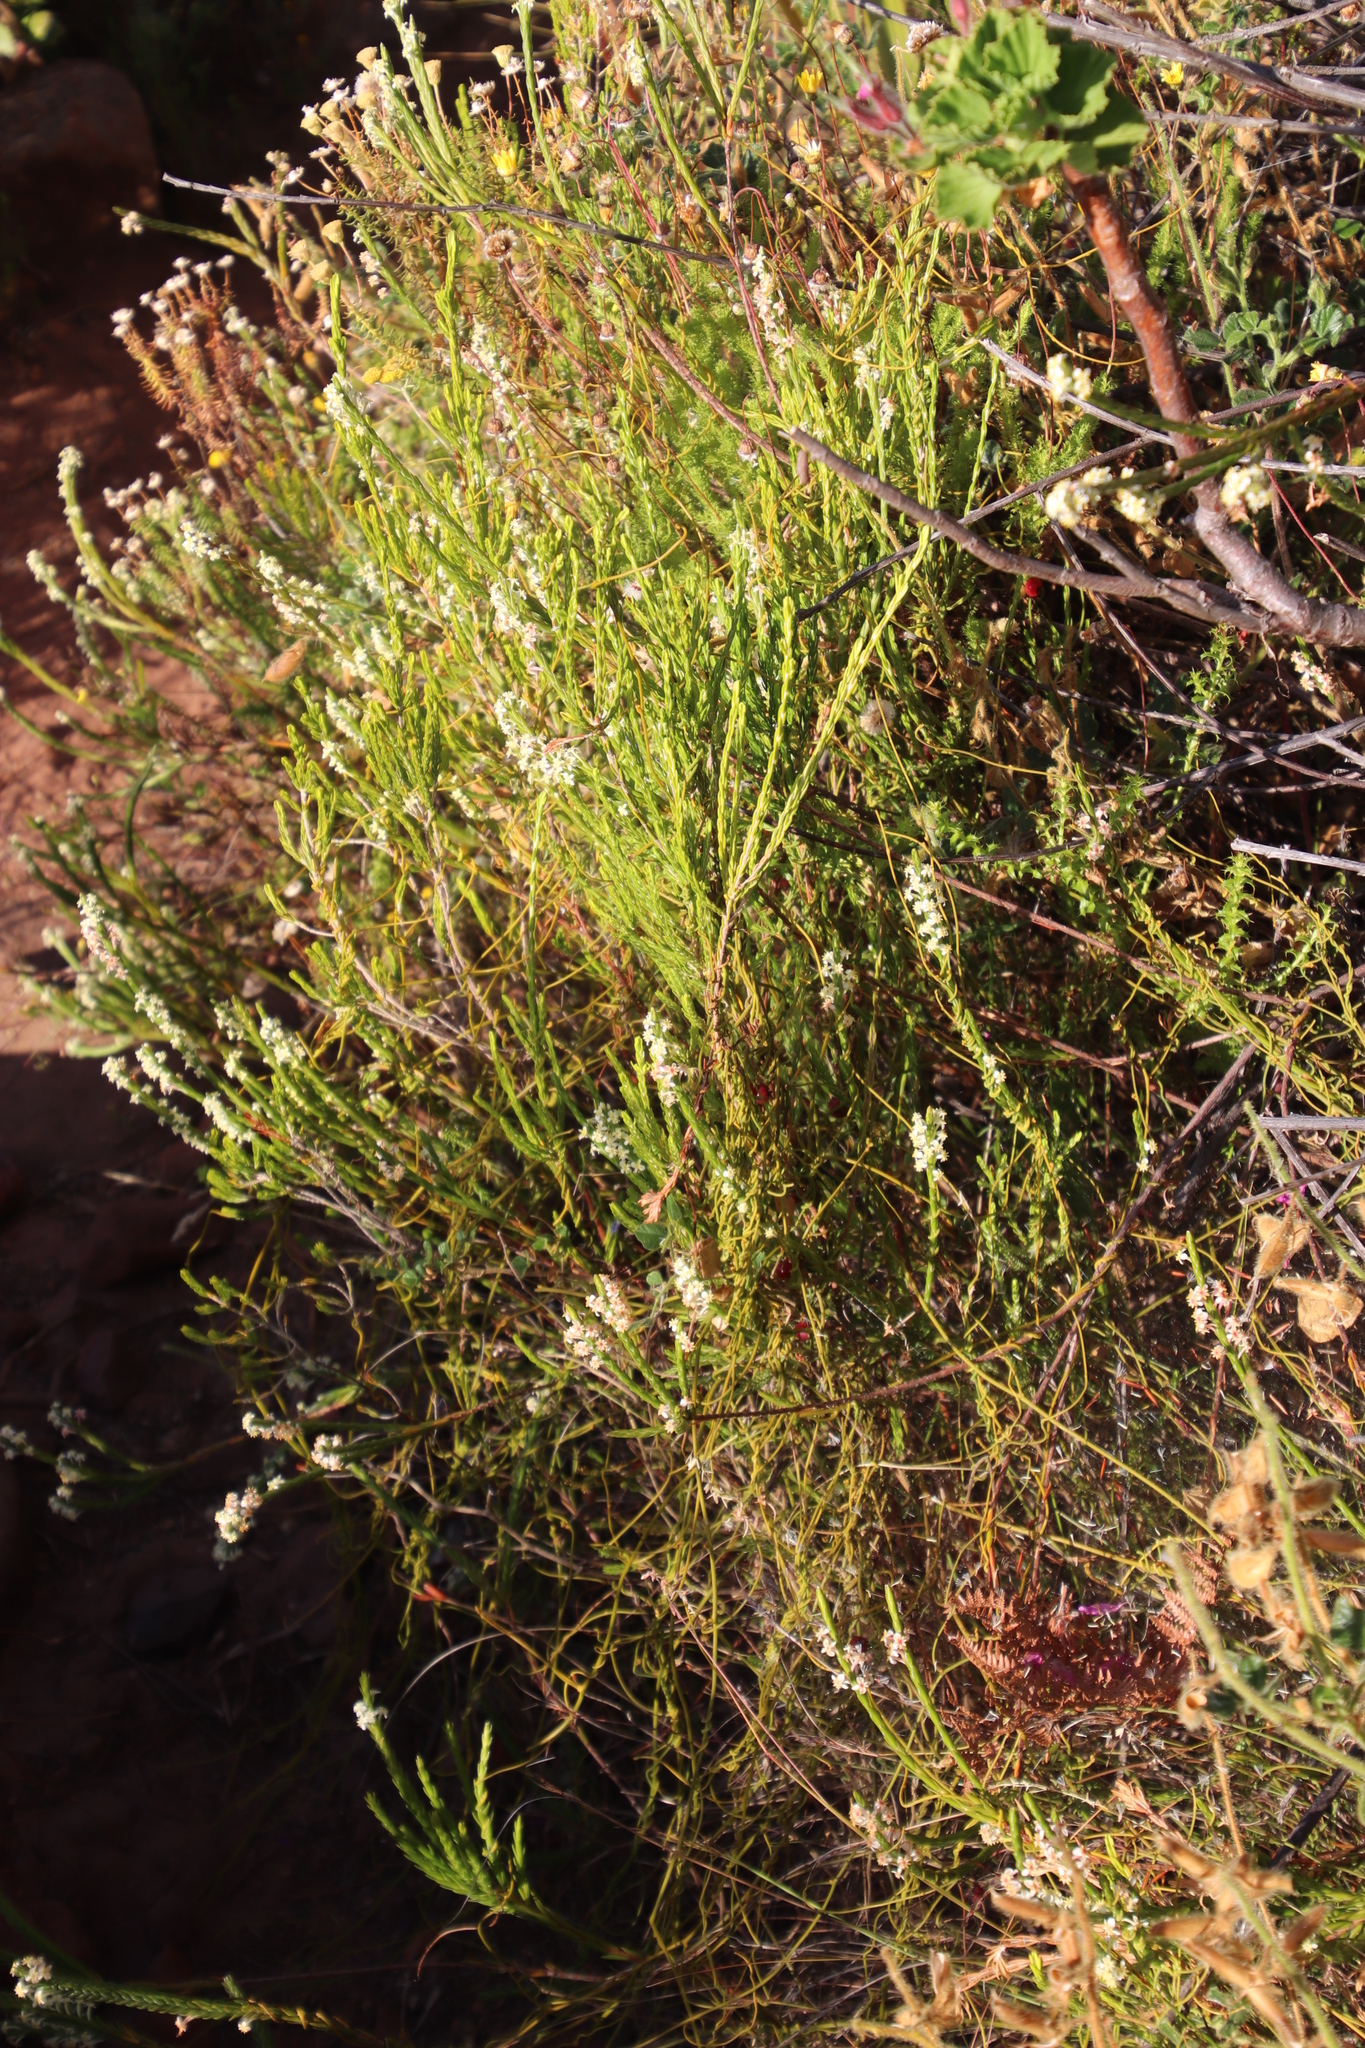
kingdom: Plantae
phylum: Tracheophyta
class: Magnoliopsida
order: Malvales
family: Thymelaeaceae
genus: Struthiola
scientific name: Struthiola ciliata
